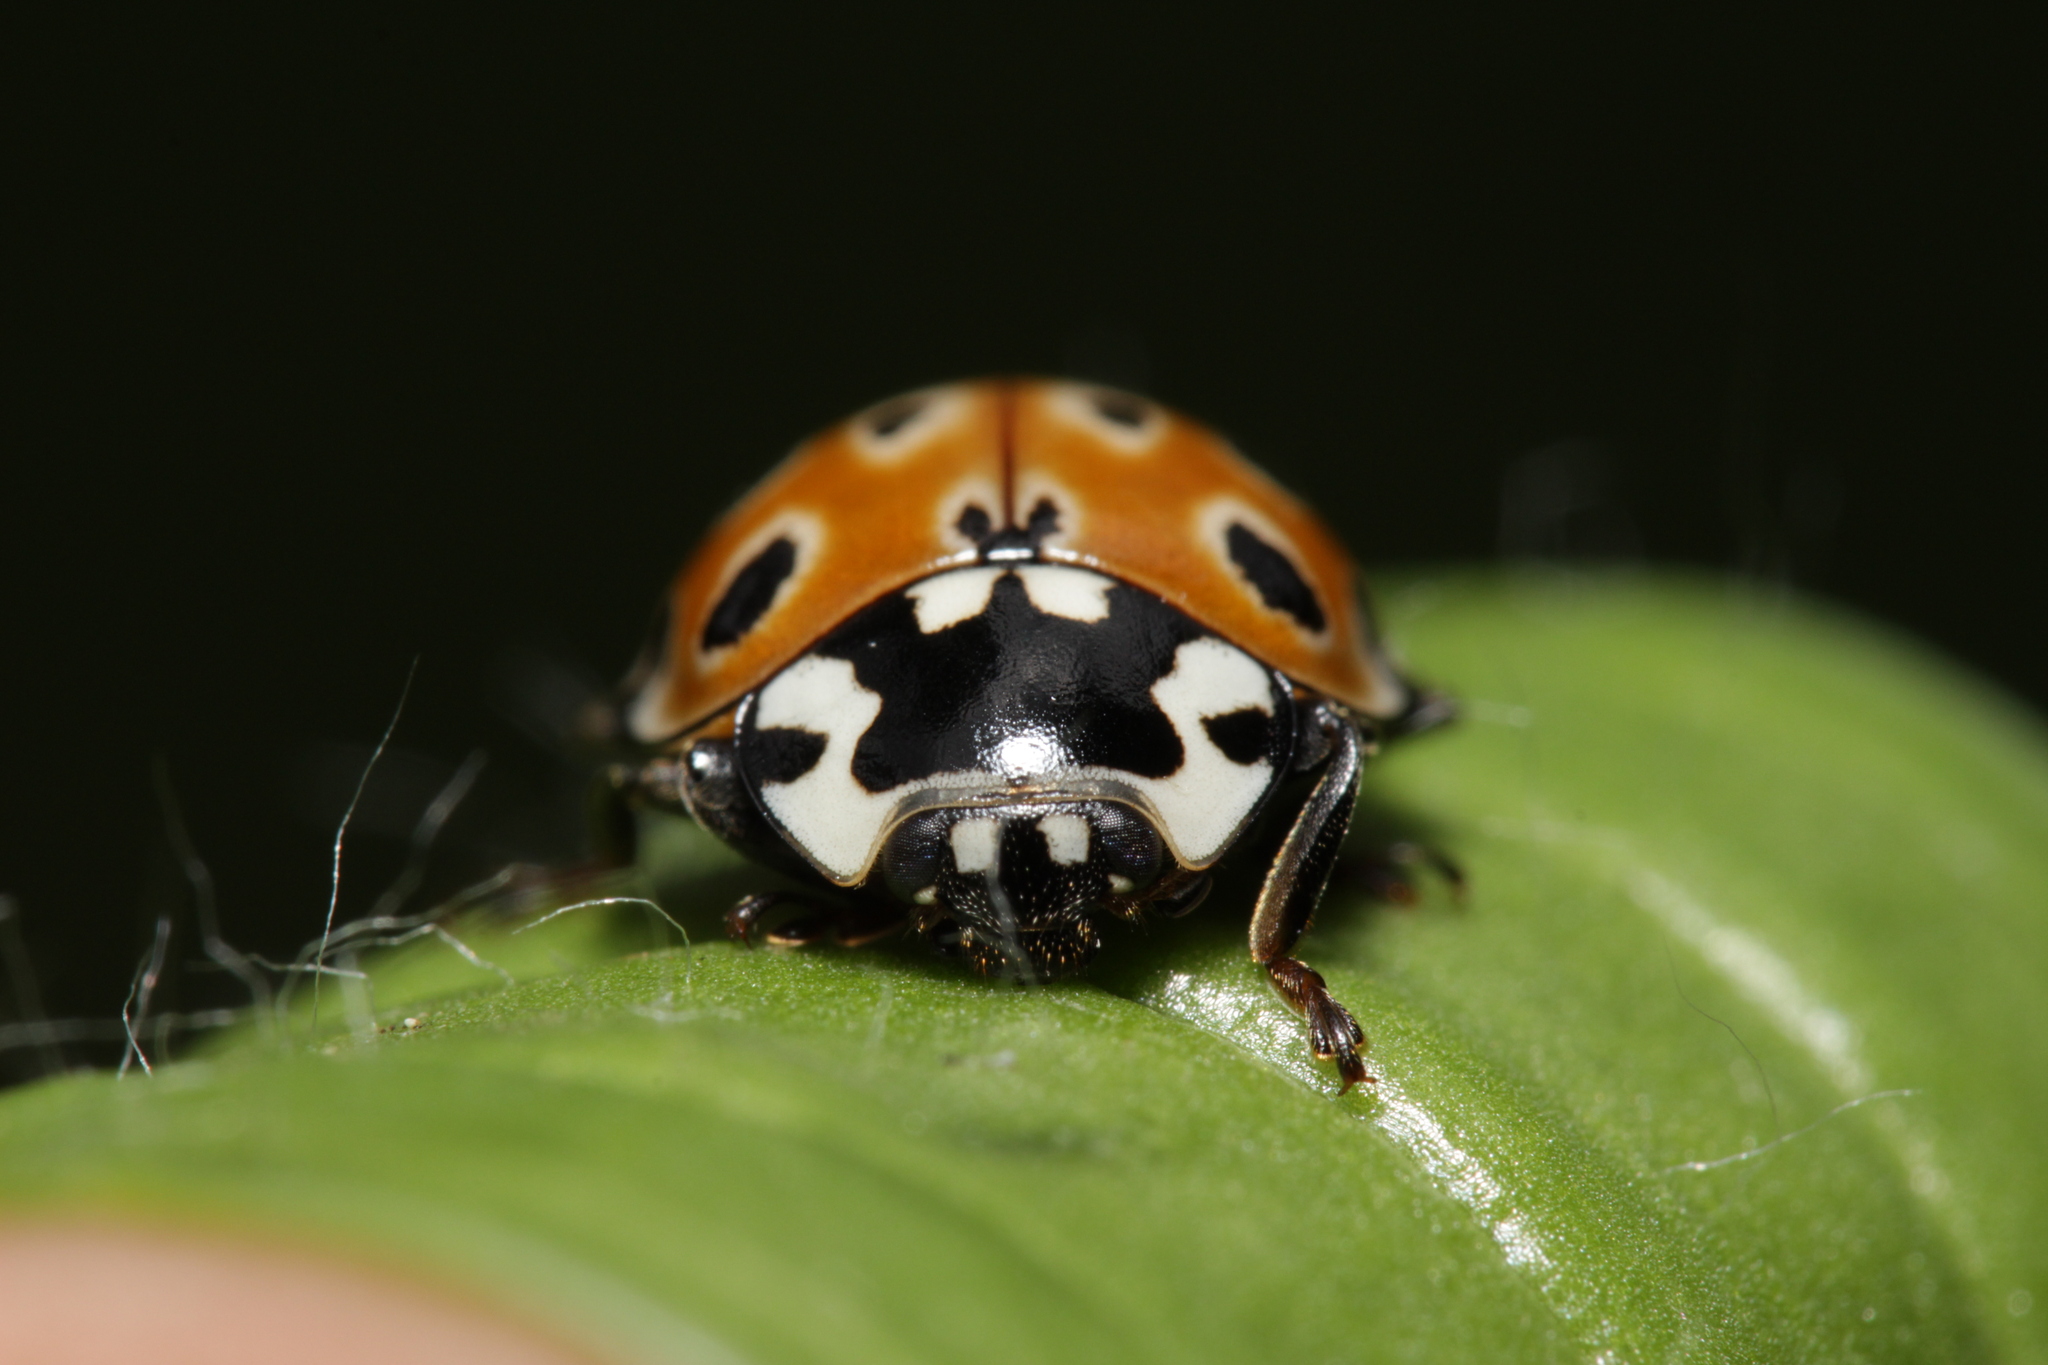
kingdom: Animalia
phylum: Arthropoda
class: Insecta
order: Coleoptera
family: Coccinellidae
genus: Anatis
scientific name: Anatis ocellata
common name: Eyed ladybird
